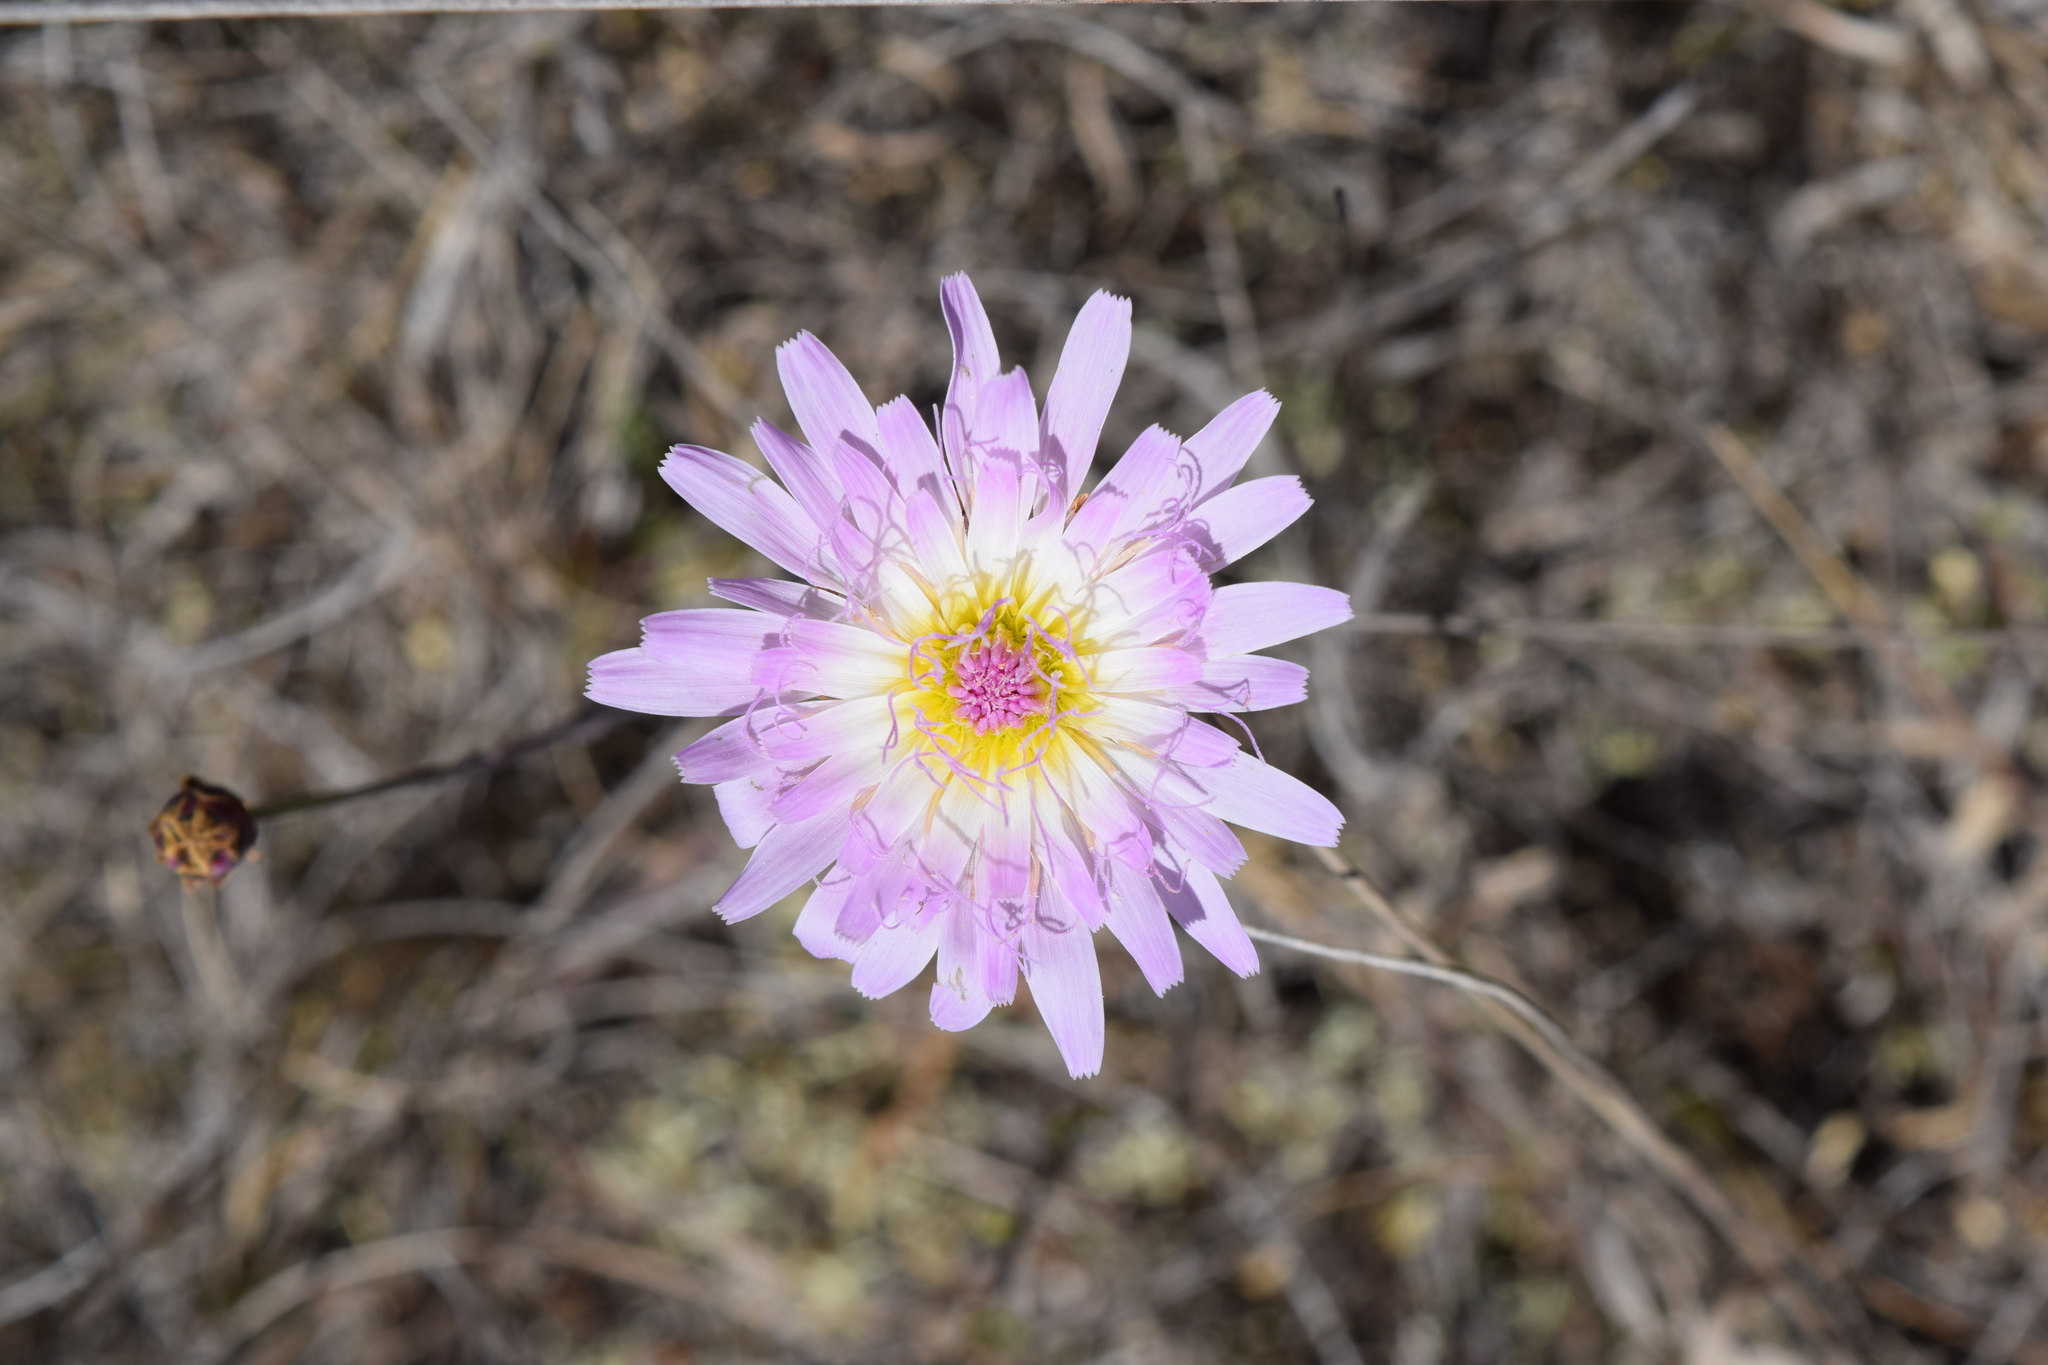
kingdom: Plantae
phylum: Tracheophyta
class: Magnoliopsida
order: Asterales
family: Asteraceae
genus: Pinaropappus
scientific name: Pinaropappus roseus
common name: Rock-lettuce
